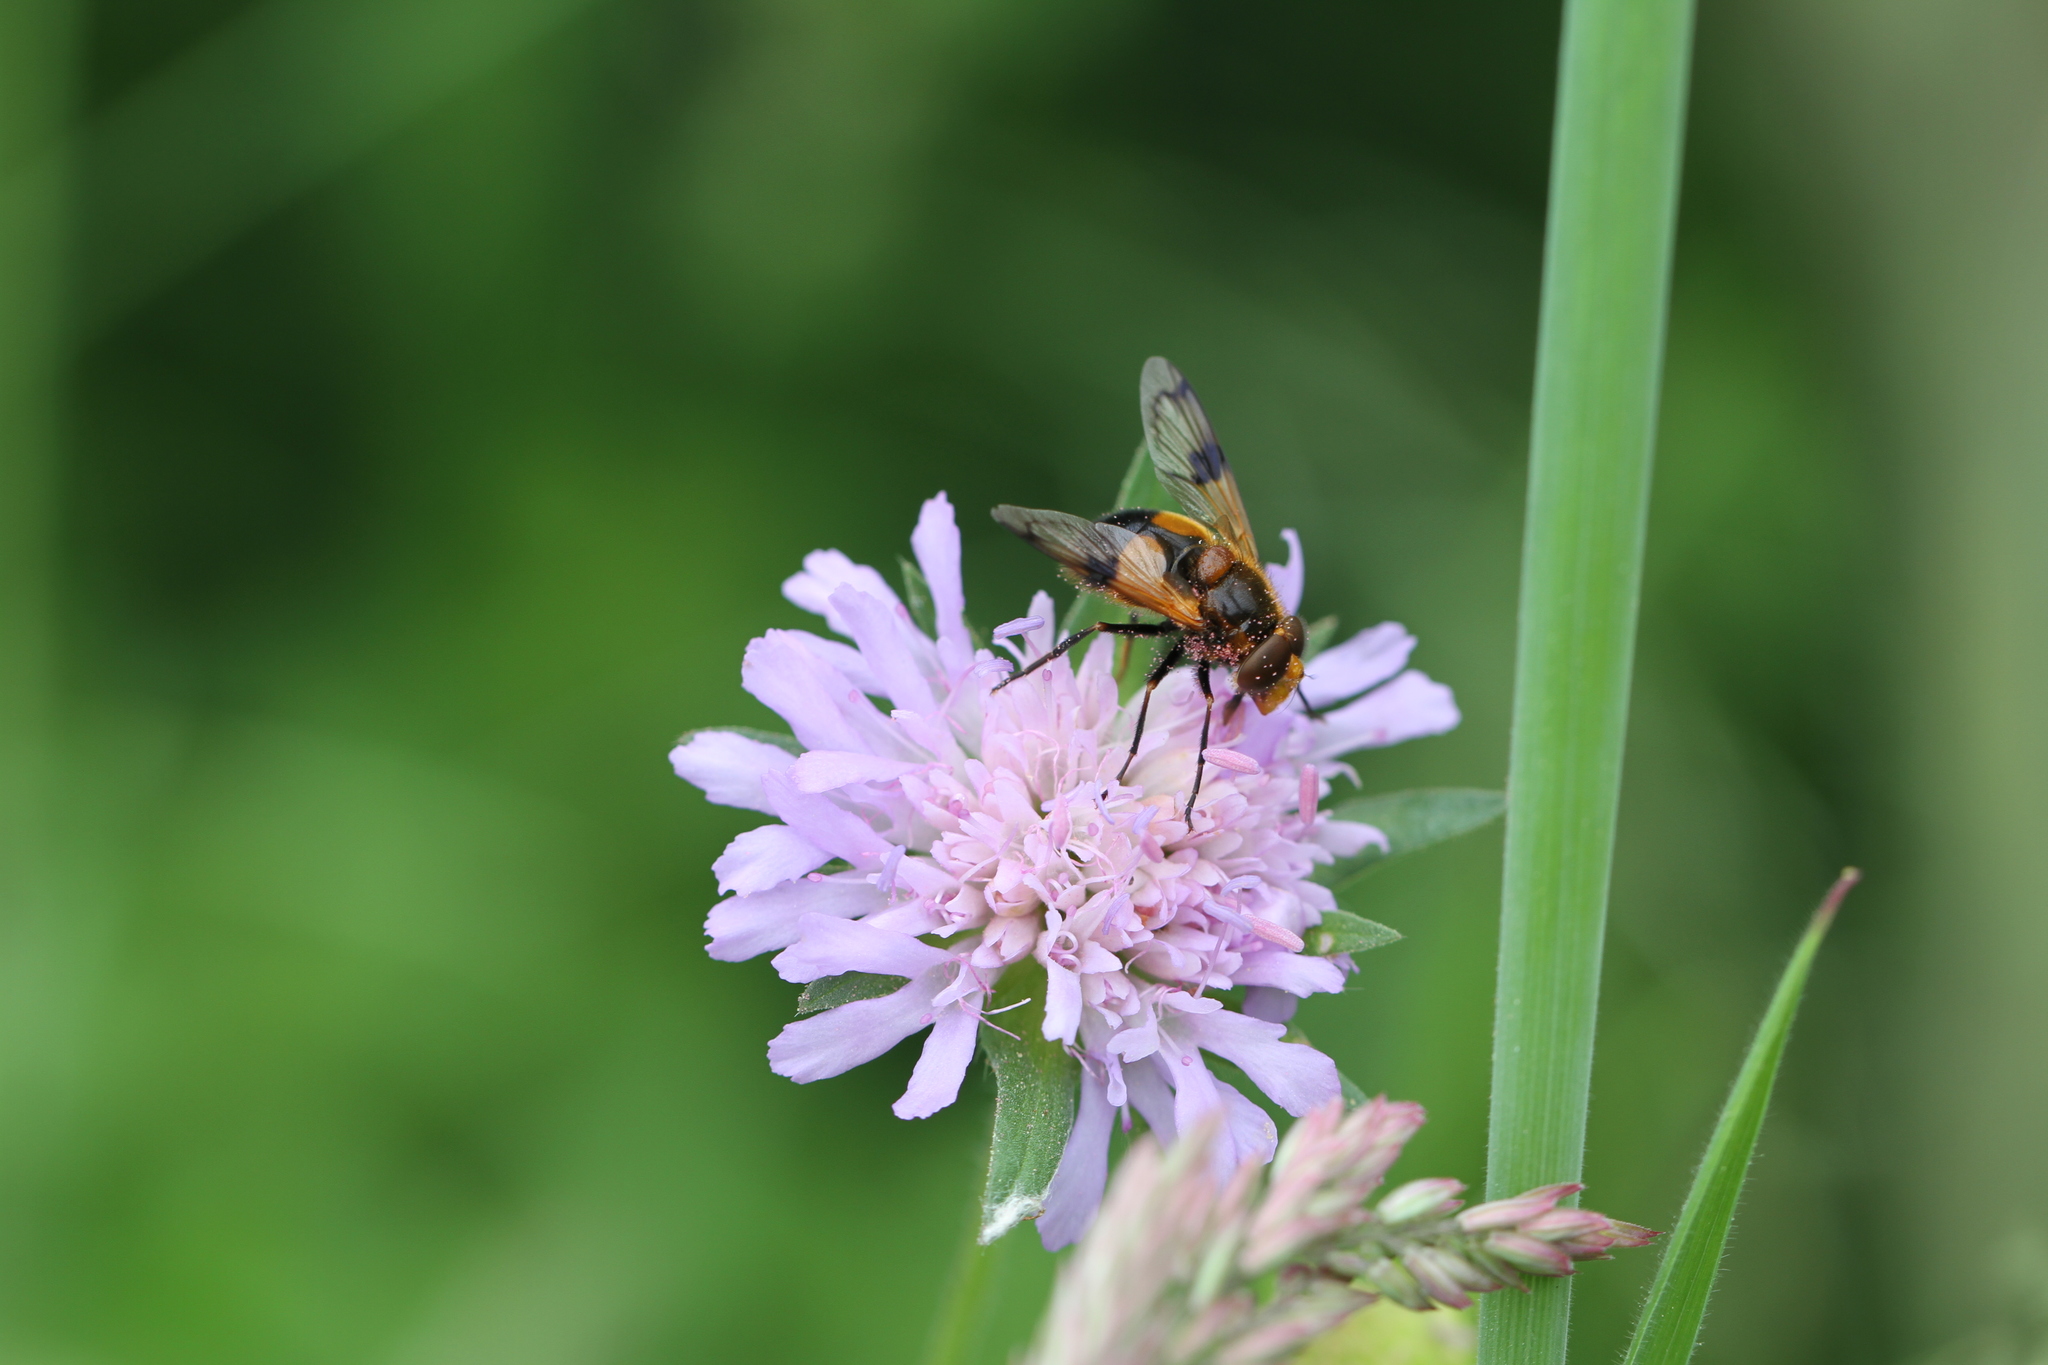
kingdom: Animalia
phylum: Arthropoda
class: Insecta
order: Diptera
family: Syrphidae
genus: Volucella
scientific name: Volucella inflata
